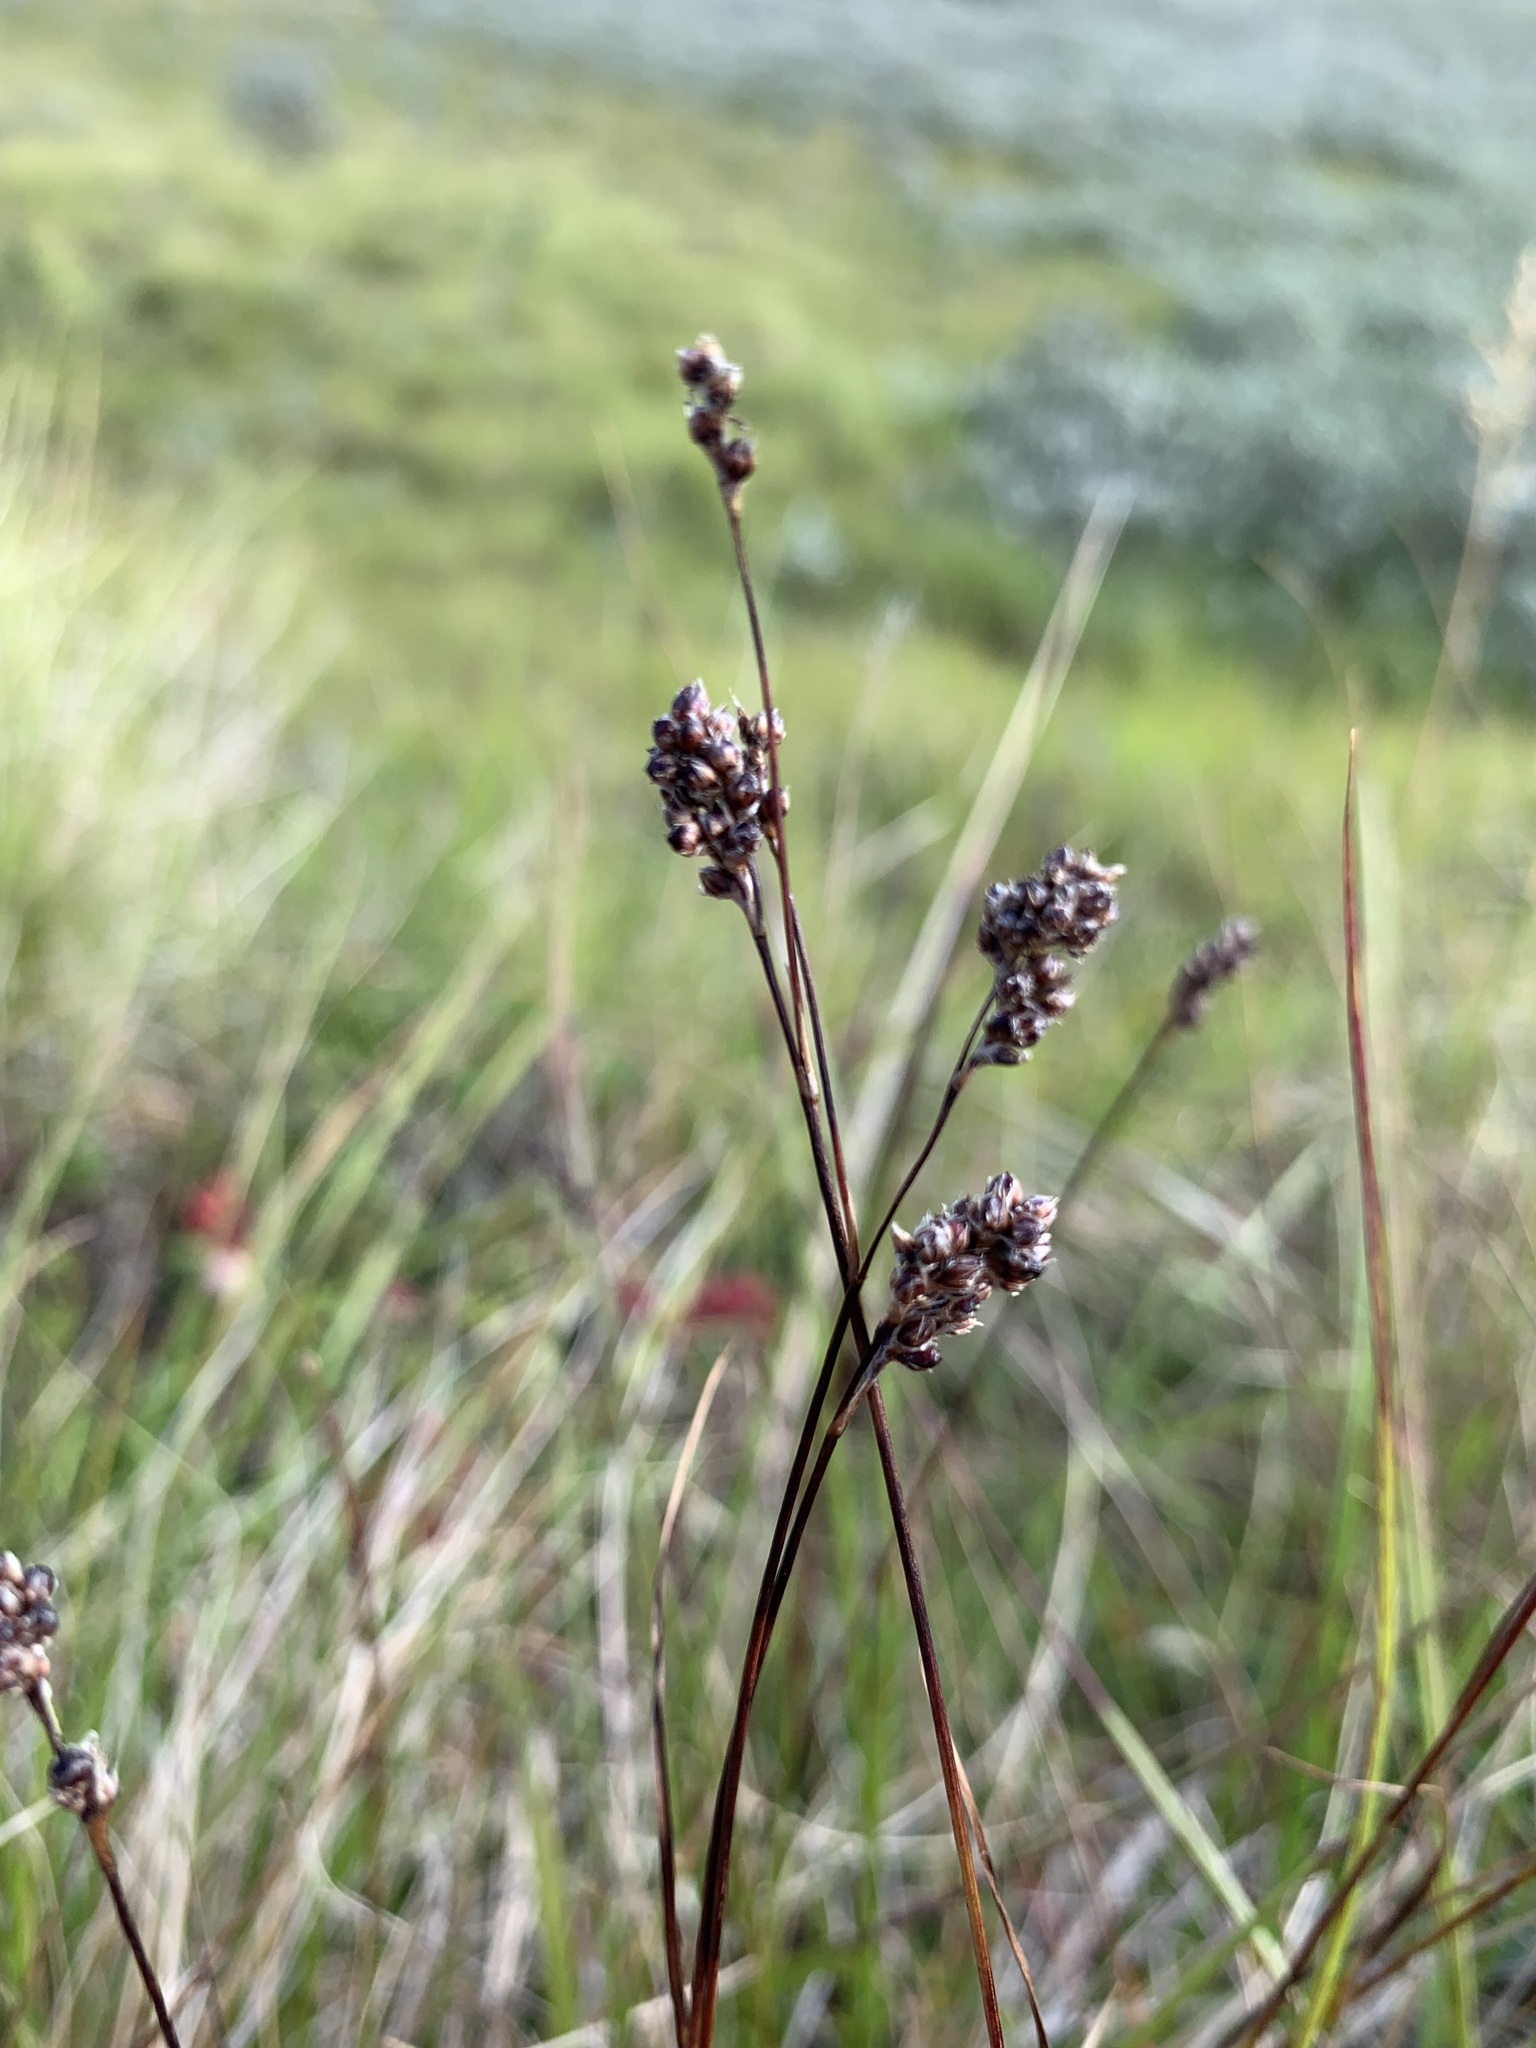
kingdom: Plantae
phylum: Tracheophyta
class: Liliopsida
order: Poales
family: Juncaceae
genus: Luzula
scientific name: Luzula confusa
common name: Northern wood rush
